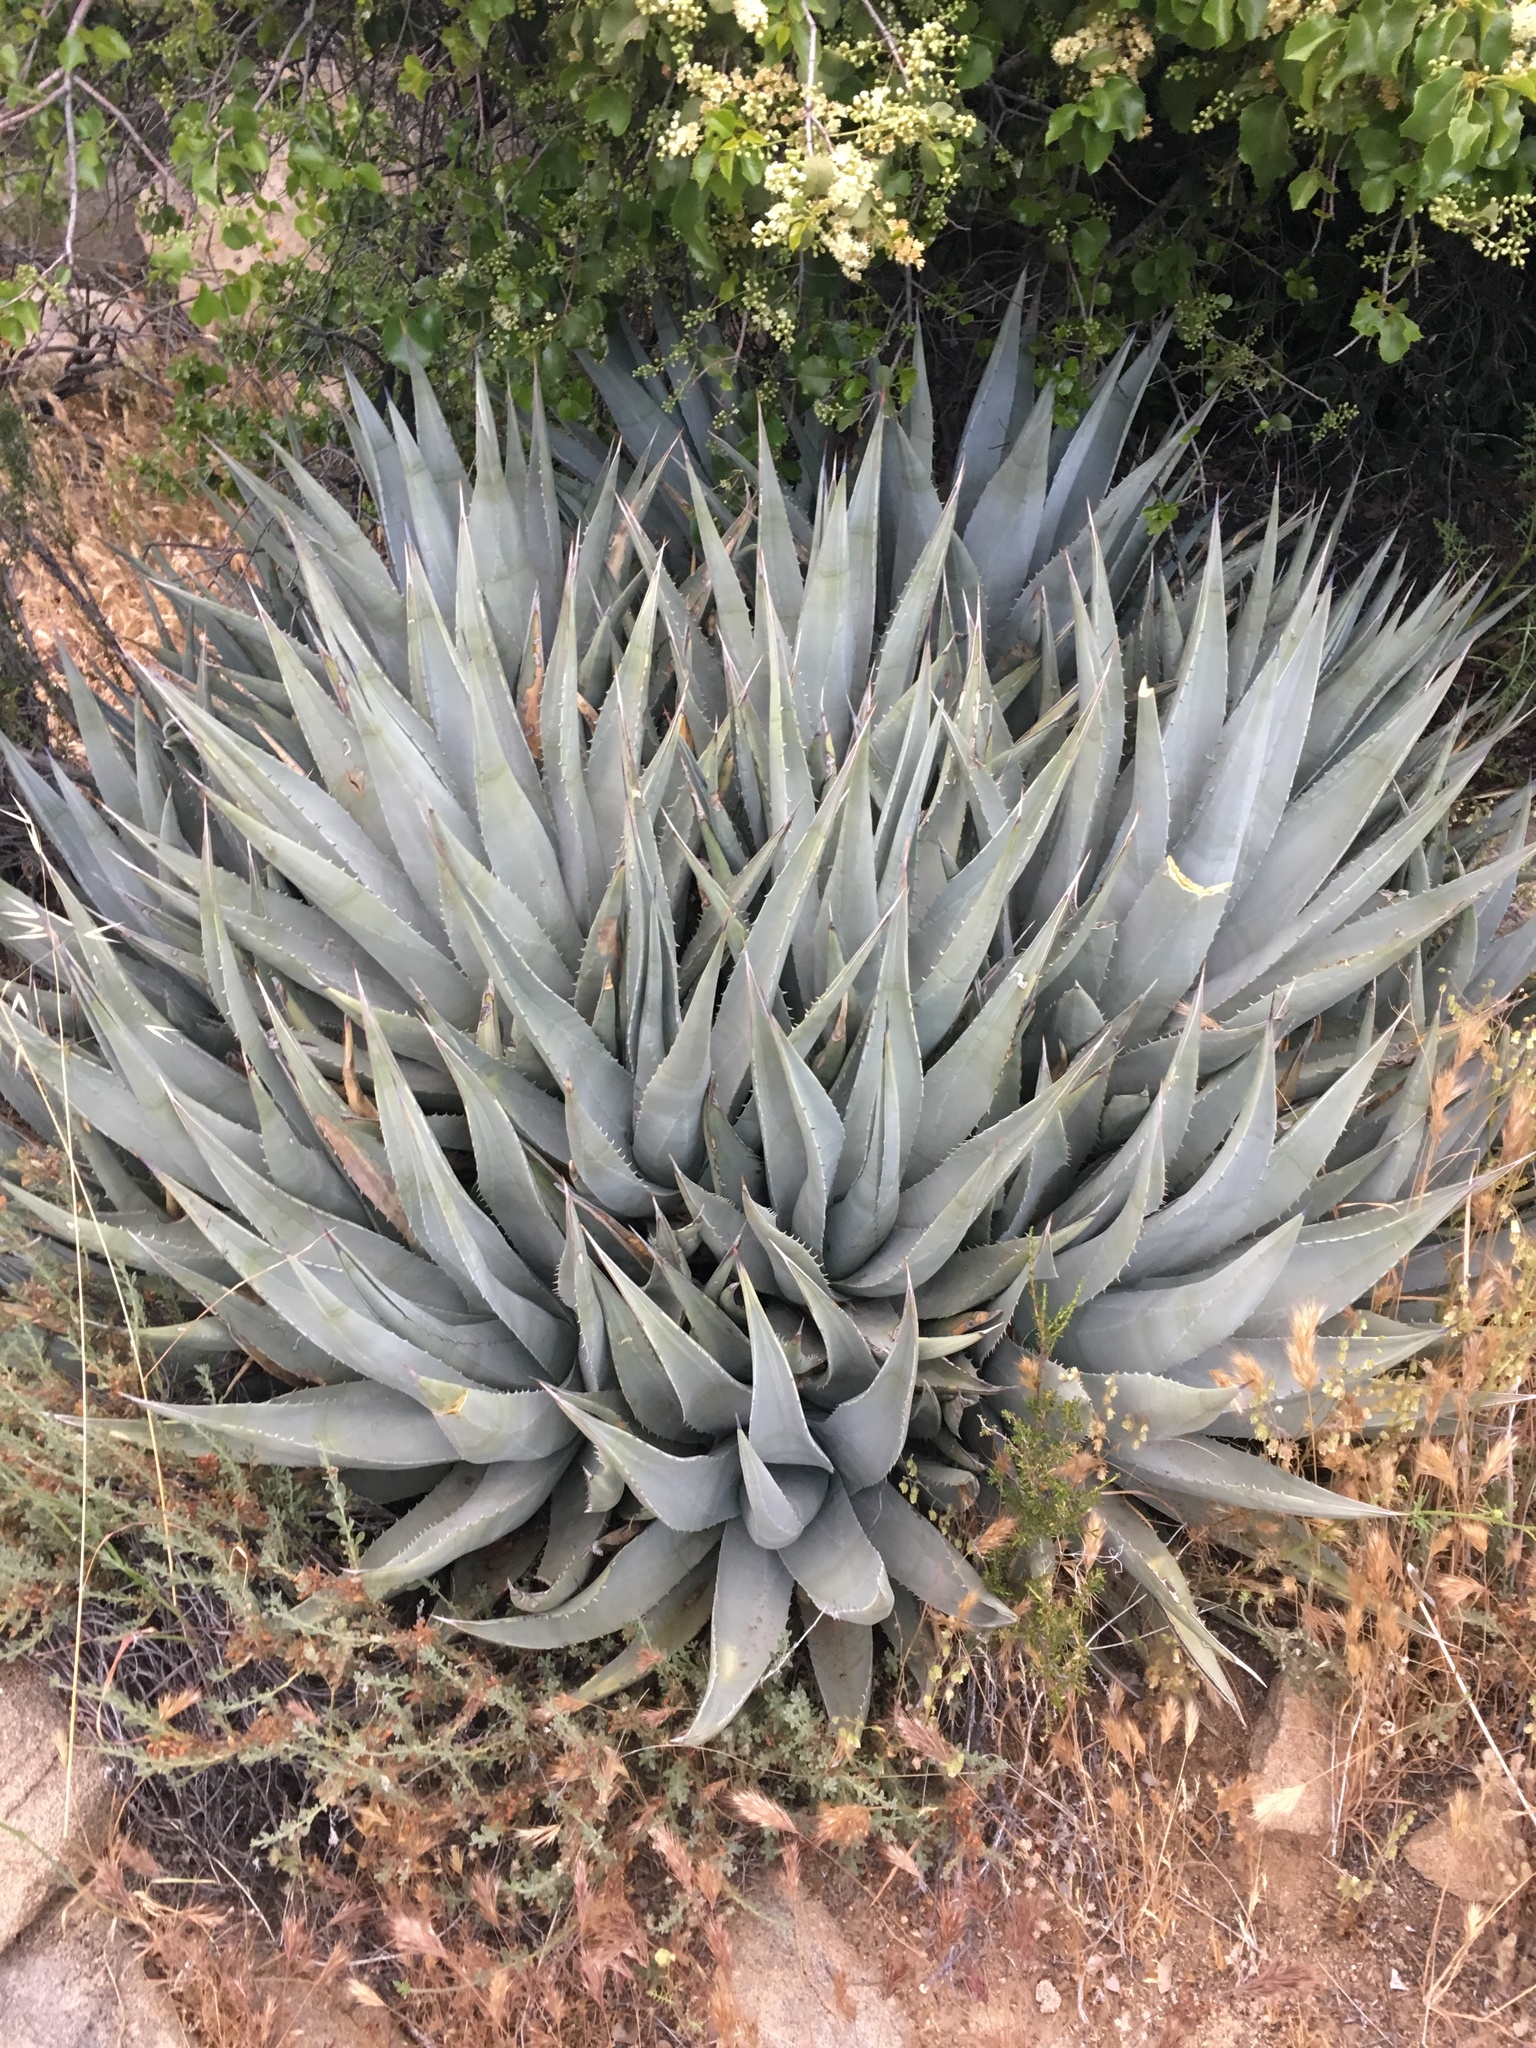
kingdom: Plantae
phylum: Tracheophyta
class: Liliopsida
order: Asparagales
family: Asparagaceae
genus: Agave
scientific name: Agave deserti
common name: Desert agave
